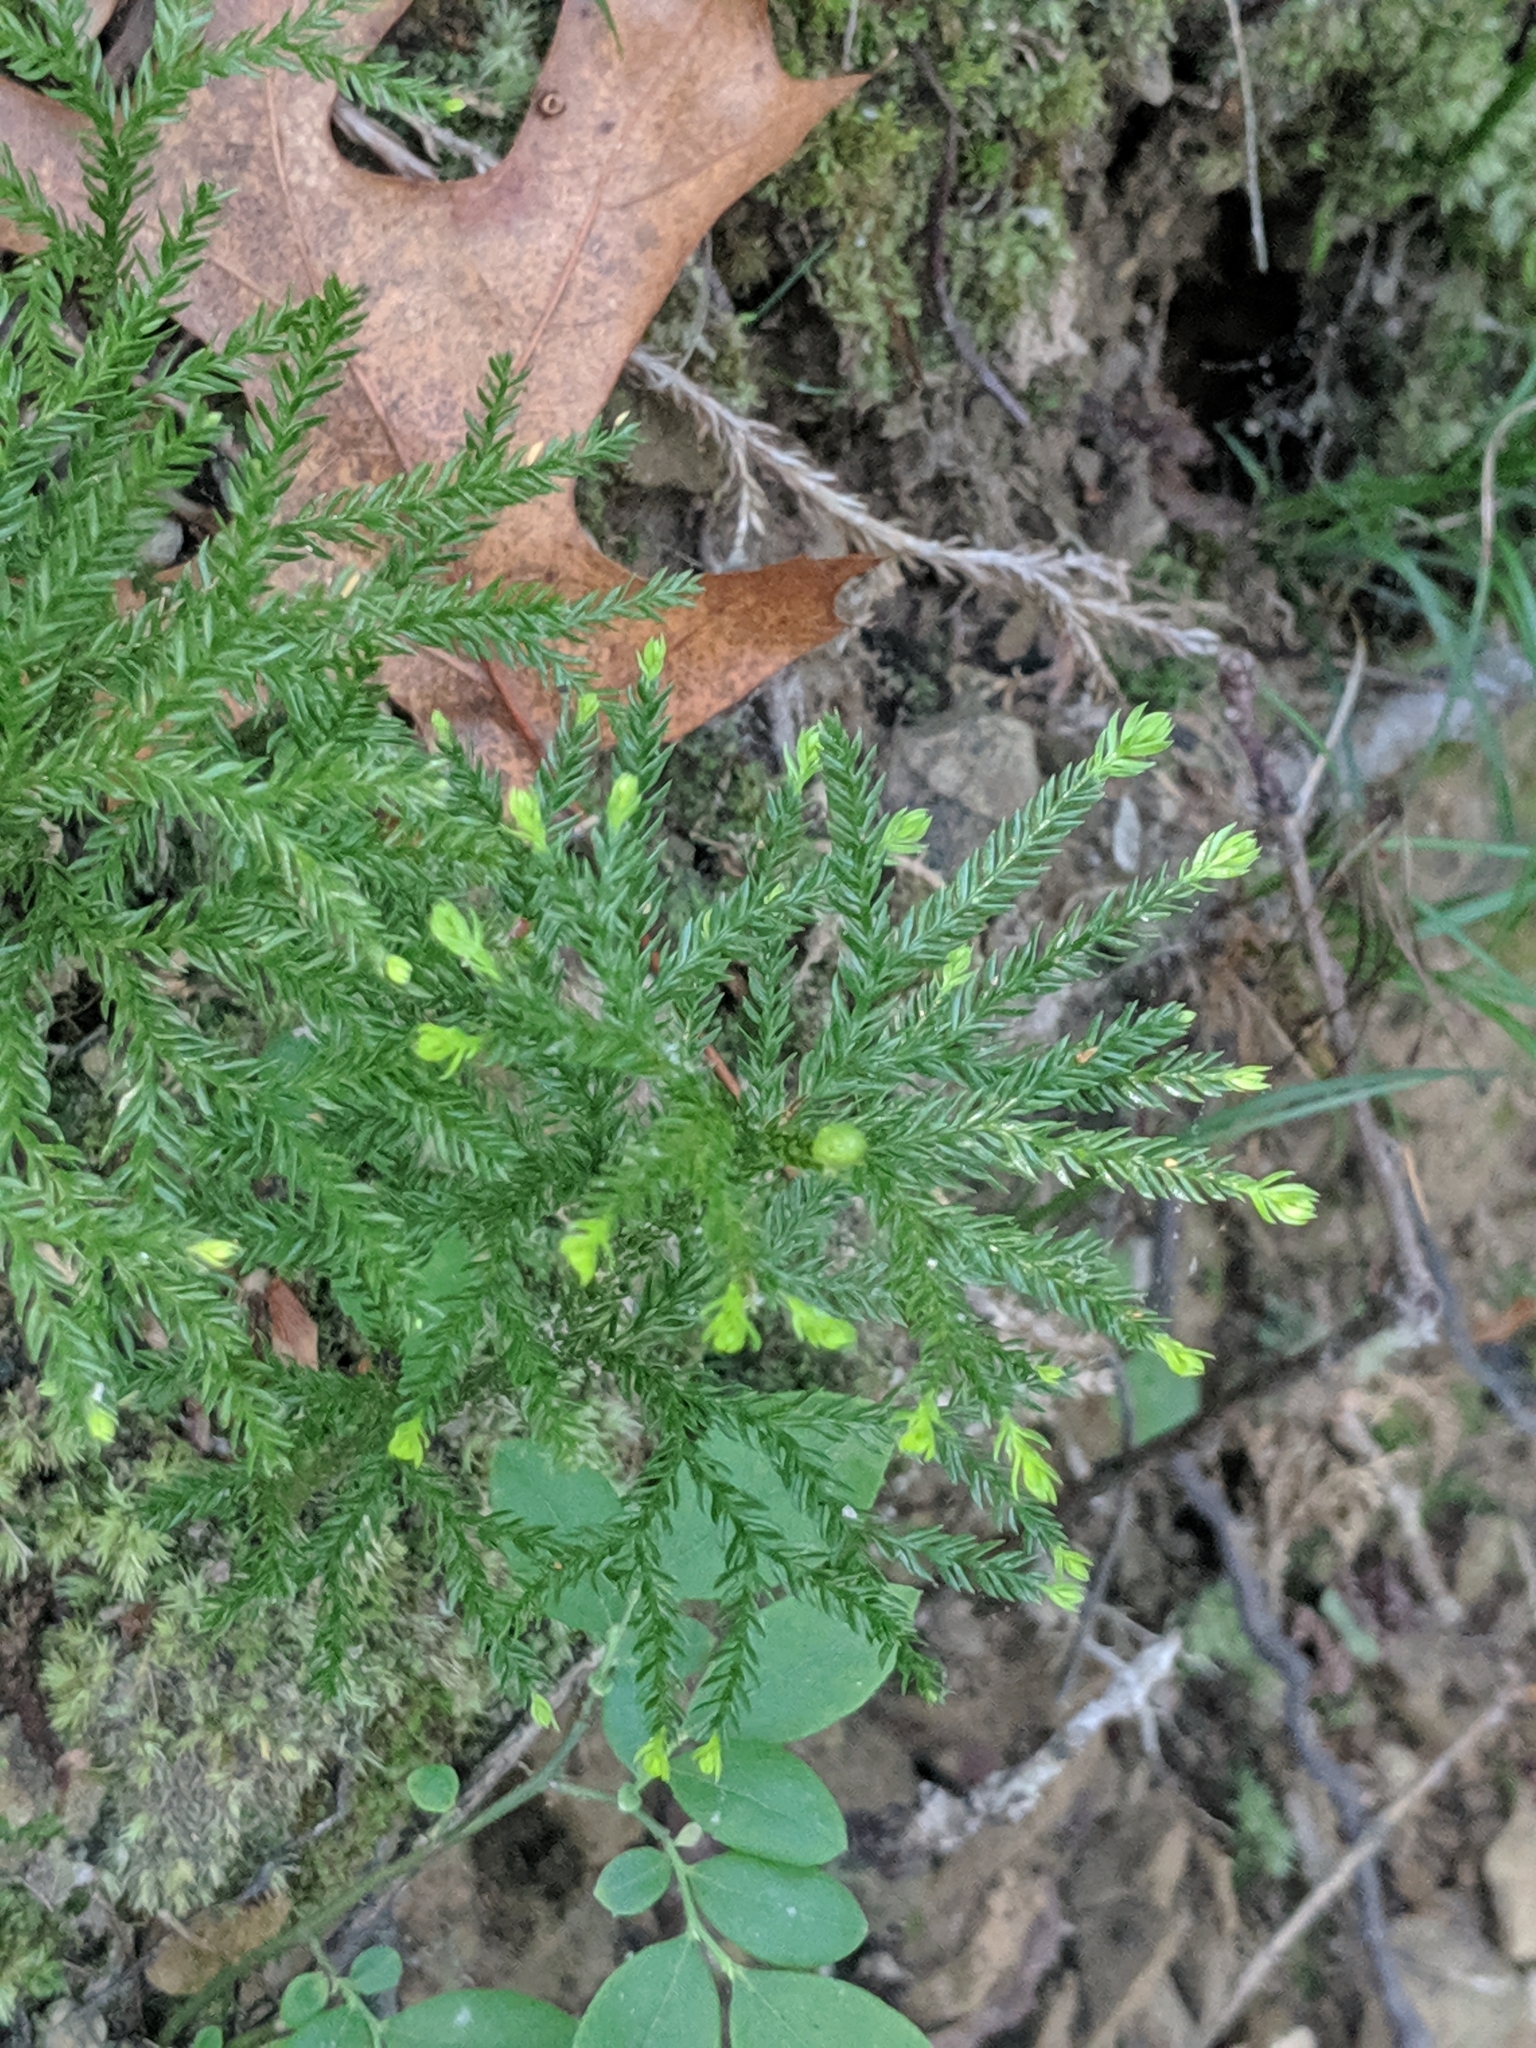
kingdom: Plantae
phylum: Tracheophyta
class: Lycopodiopsida
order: Lycopodiales
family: Lycopodiaceae
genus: Dendrolycopodium
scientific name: Dendrolycopodium obscurum
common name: Common ground-pine
